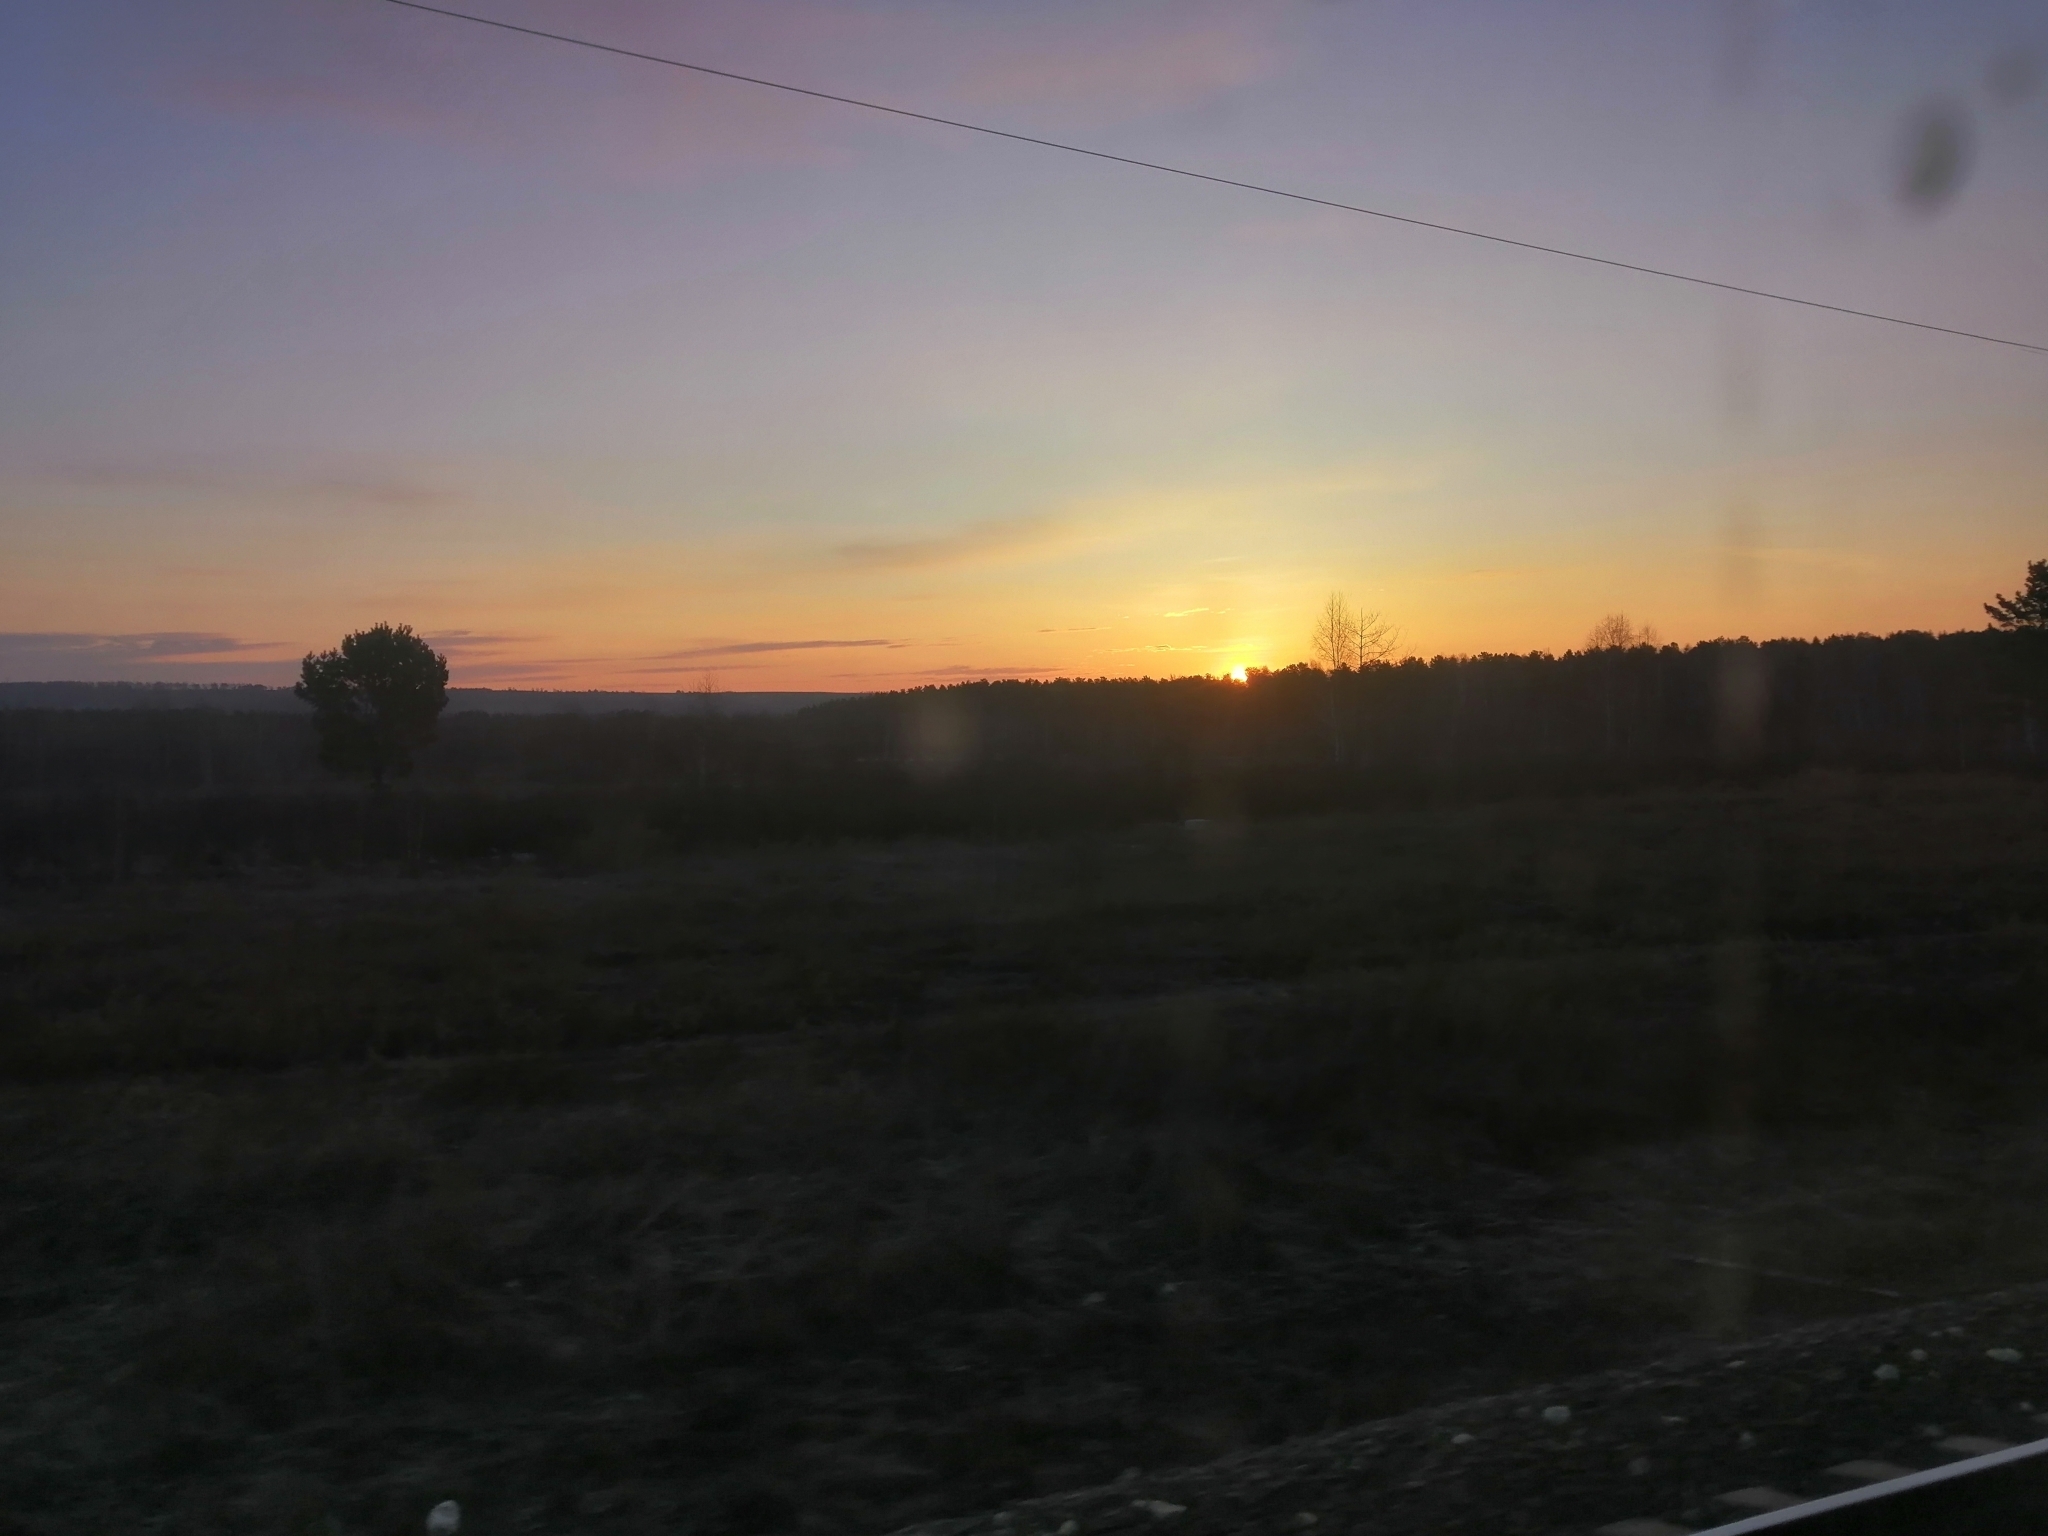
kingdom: Plantae
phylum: Tracheophyta
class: Pinopsida
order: Pinales
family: Pinaceae
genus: Pinus
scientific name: Pinus sylvestris
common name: Scots pine
